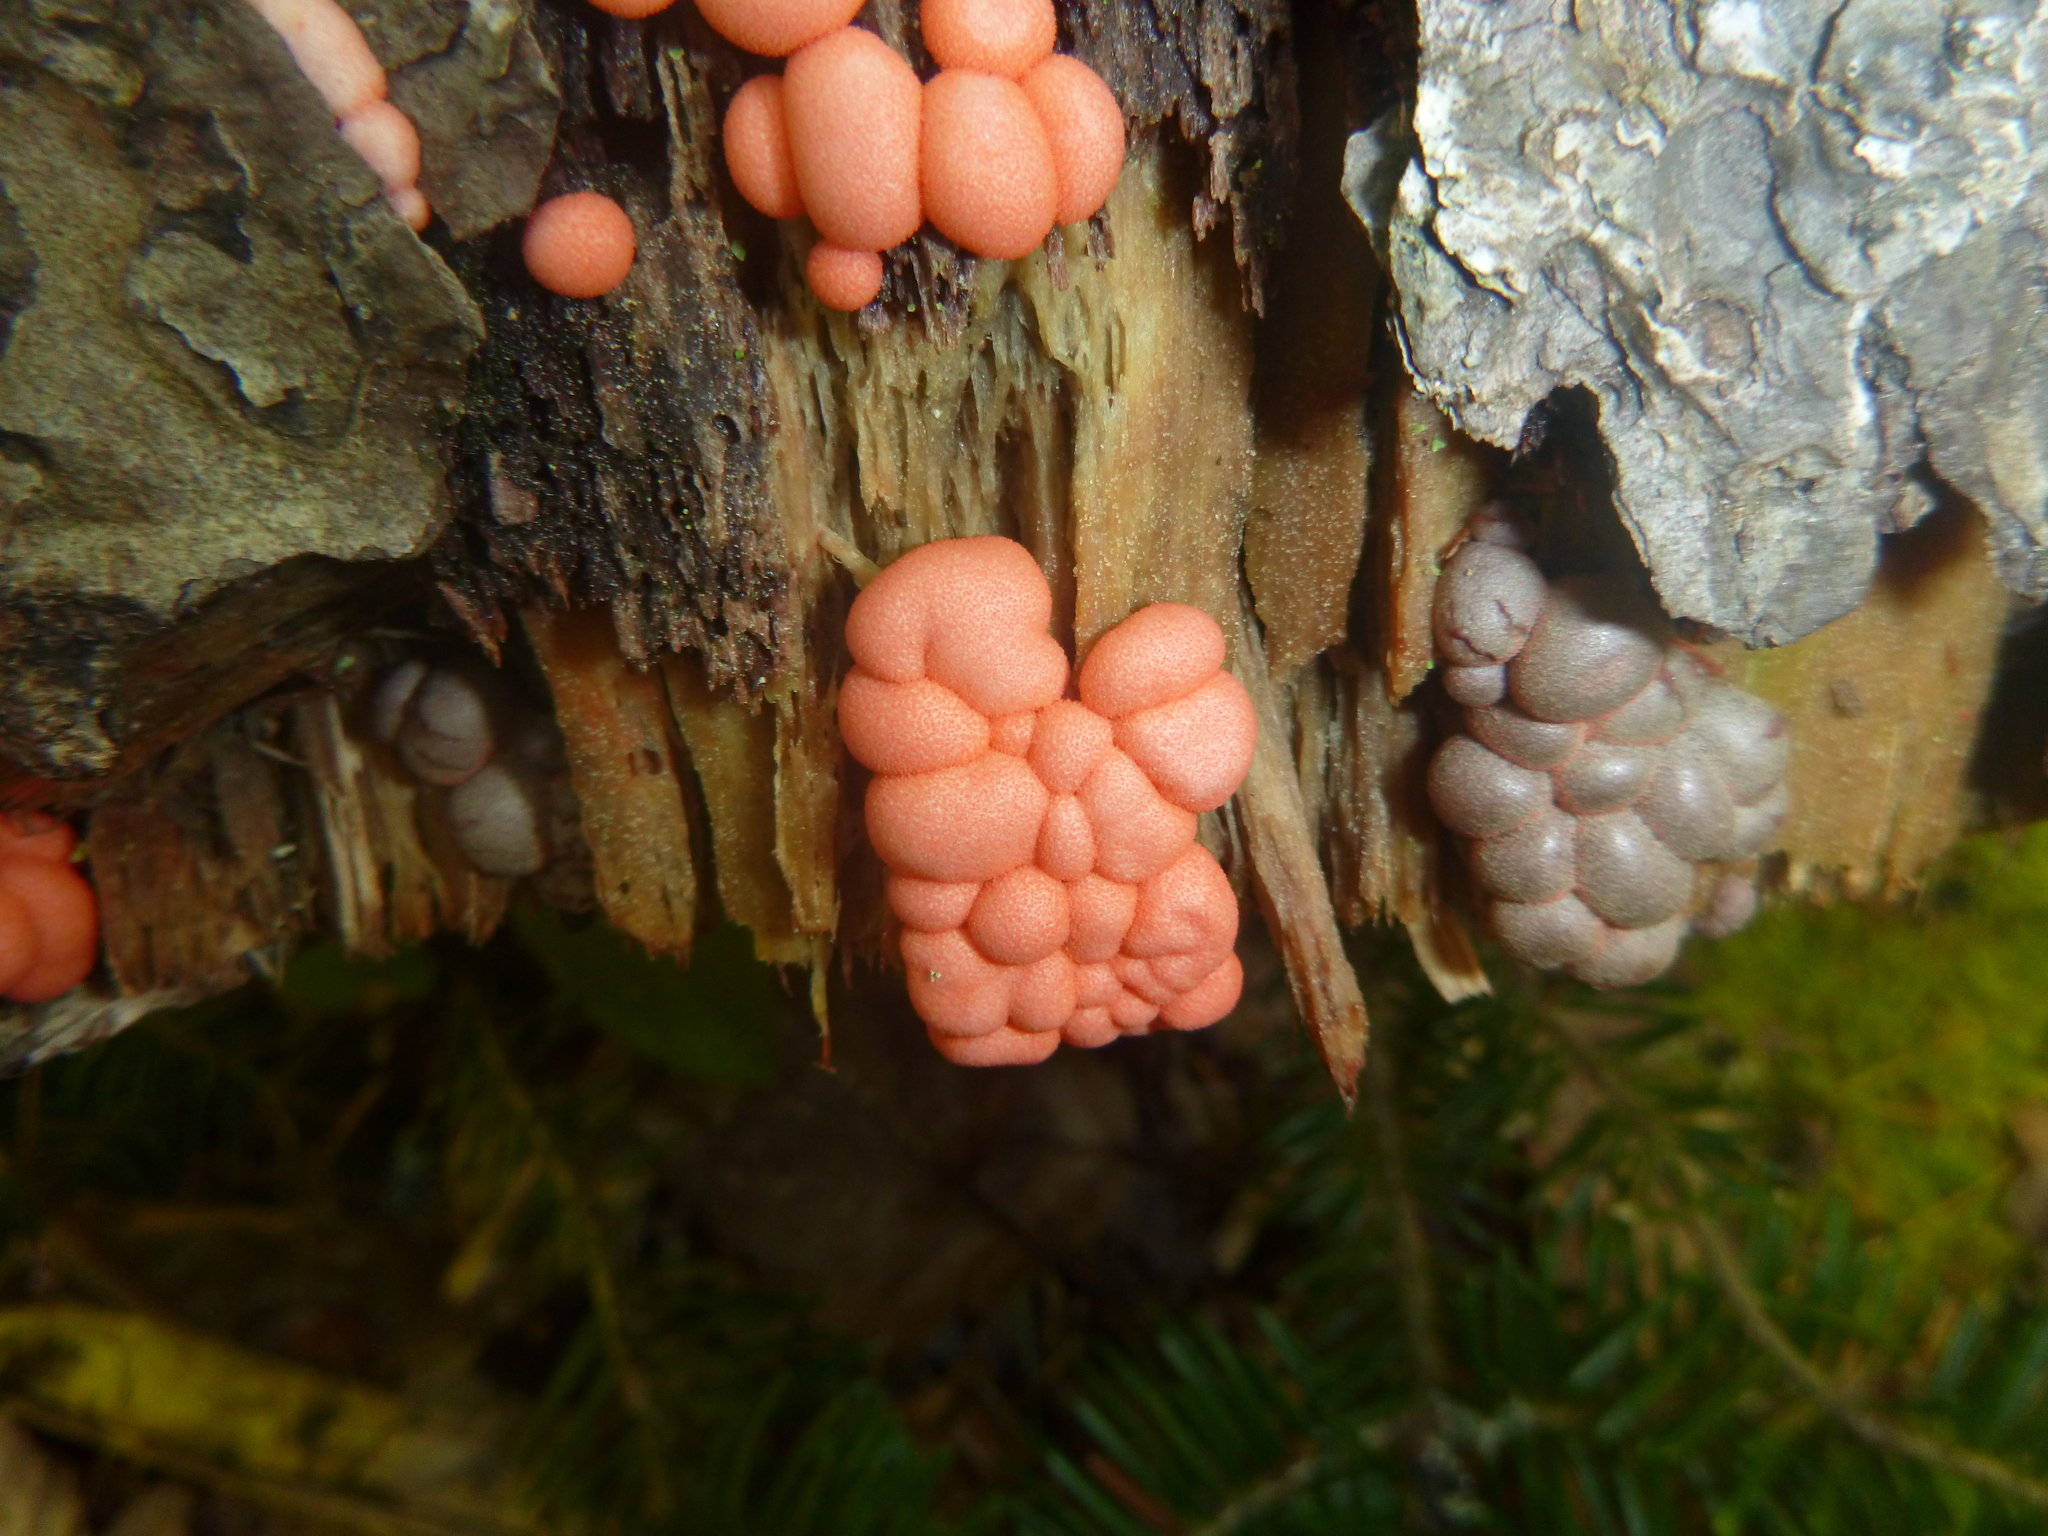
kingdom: Protozoa
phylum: Mycetozoa
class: Myxomycetes
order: Cribrariales
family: Tubiferaceae
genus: Lycogala
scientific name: Lycogala epidendrum
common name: Wolf's milk
